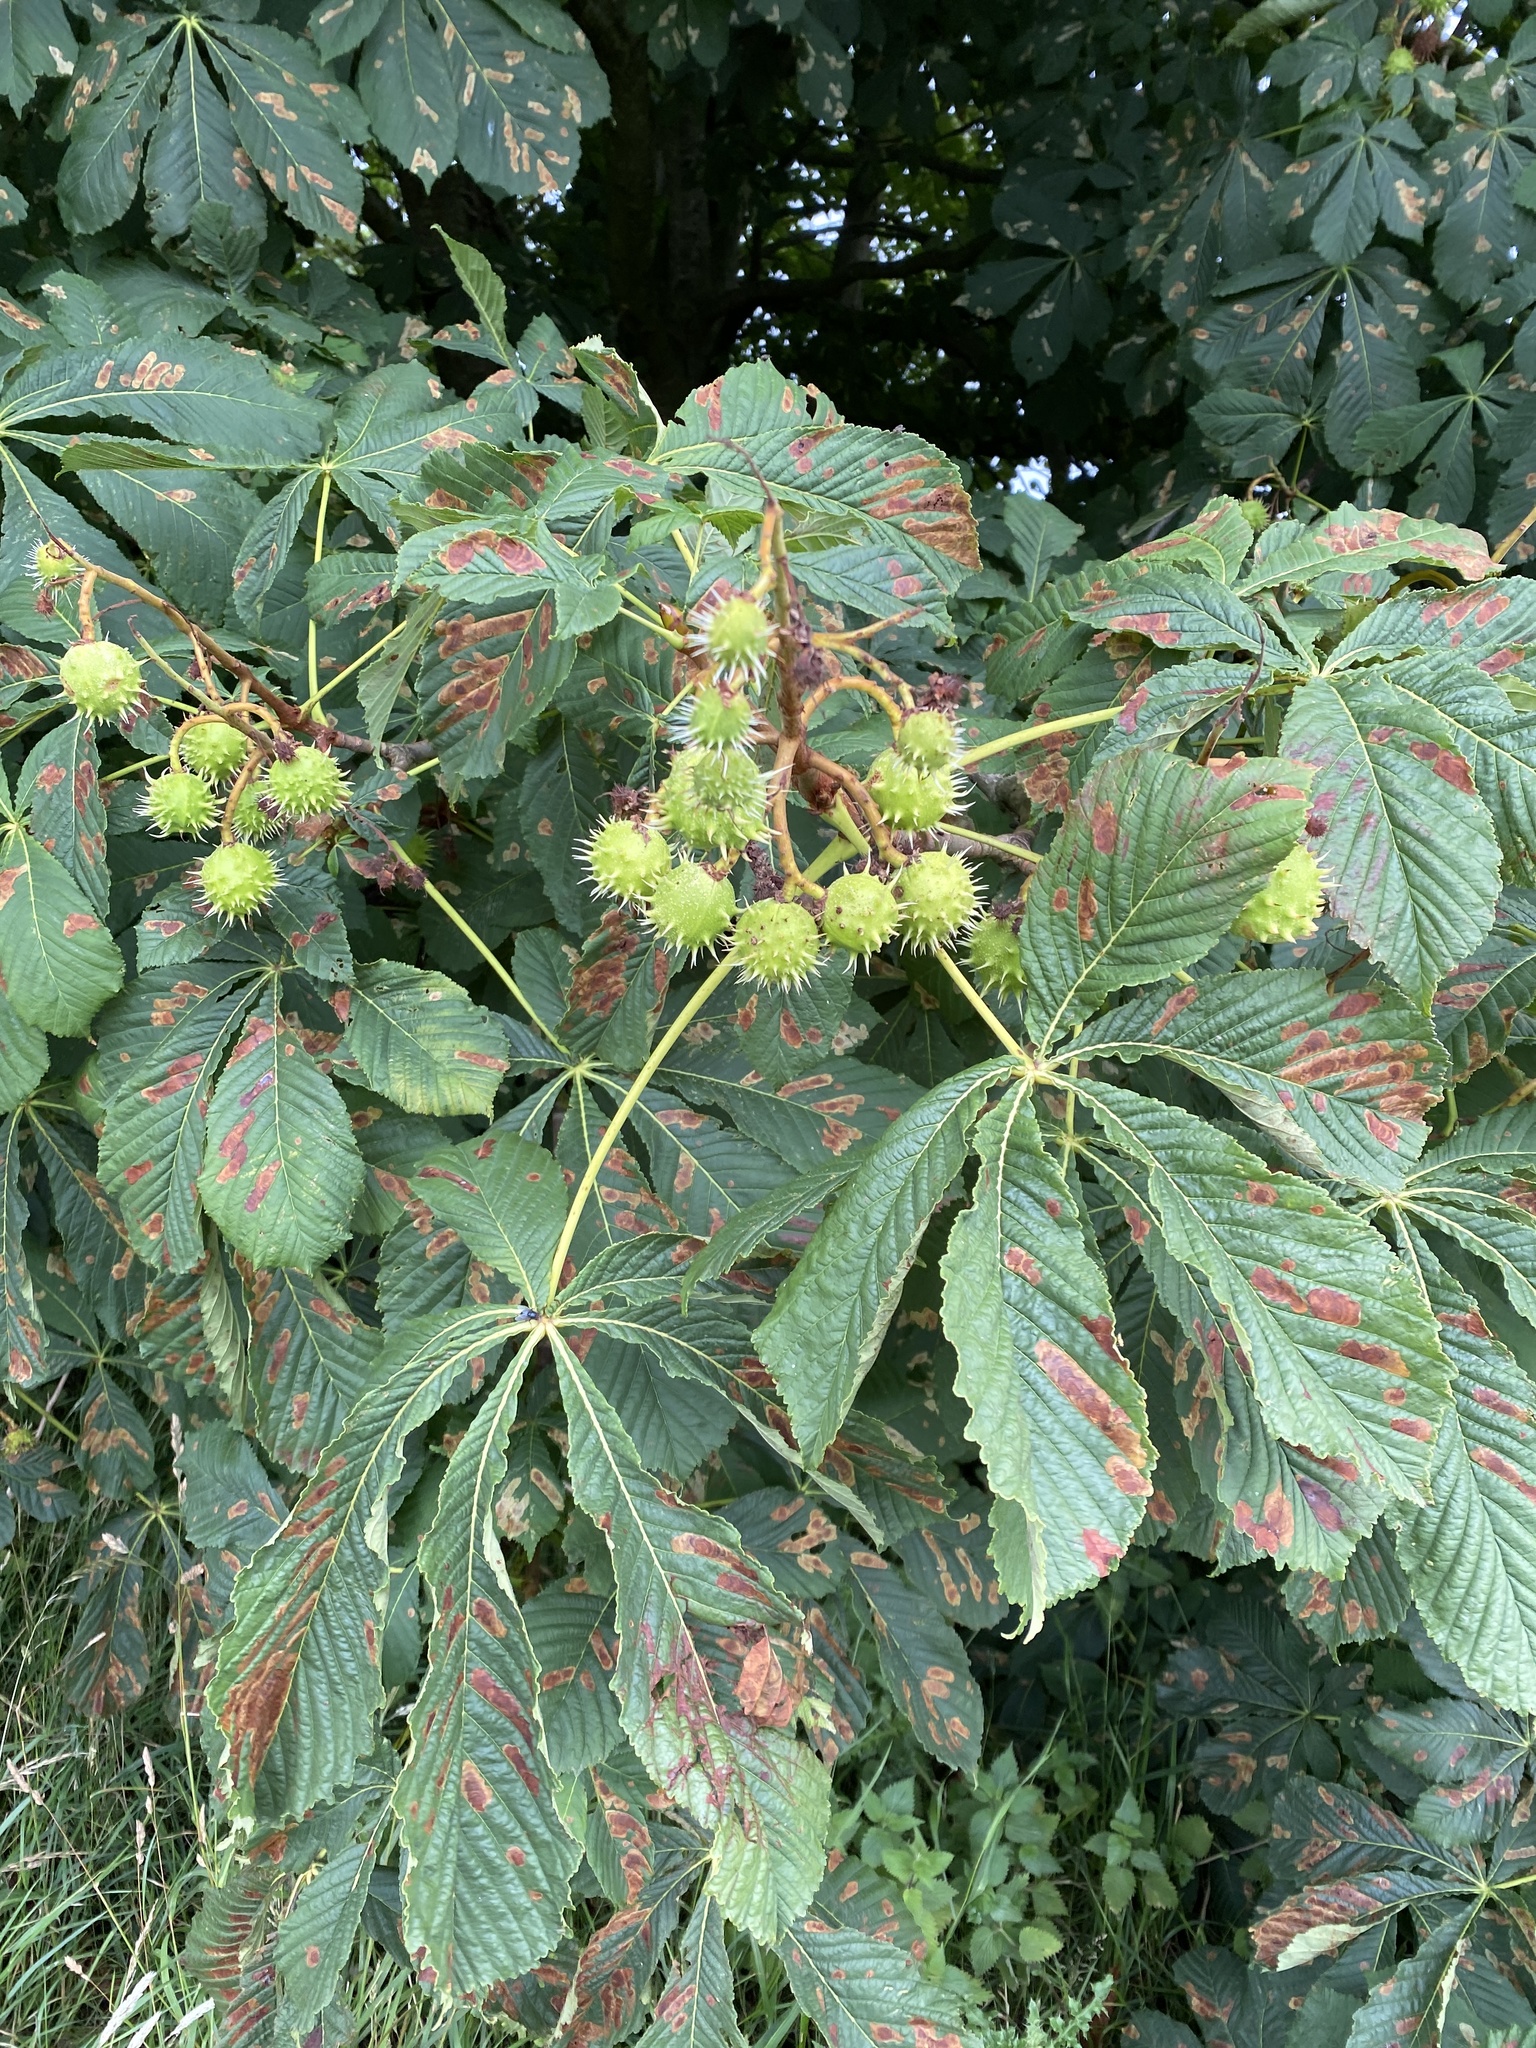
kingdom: Plantae
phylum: Tracheophyta
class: Magnoliopsida
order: Sapindales
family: Sapindaceae
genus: Aesculus
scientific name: Aesculus hippocastanum
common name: Horse-chestnut
